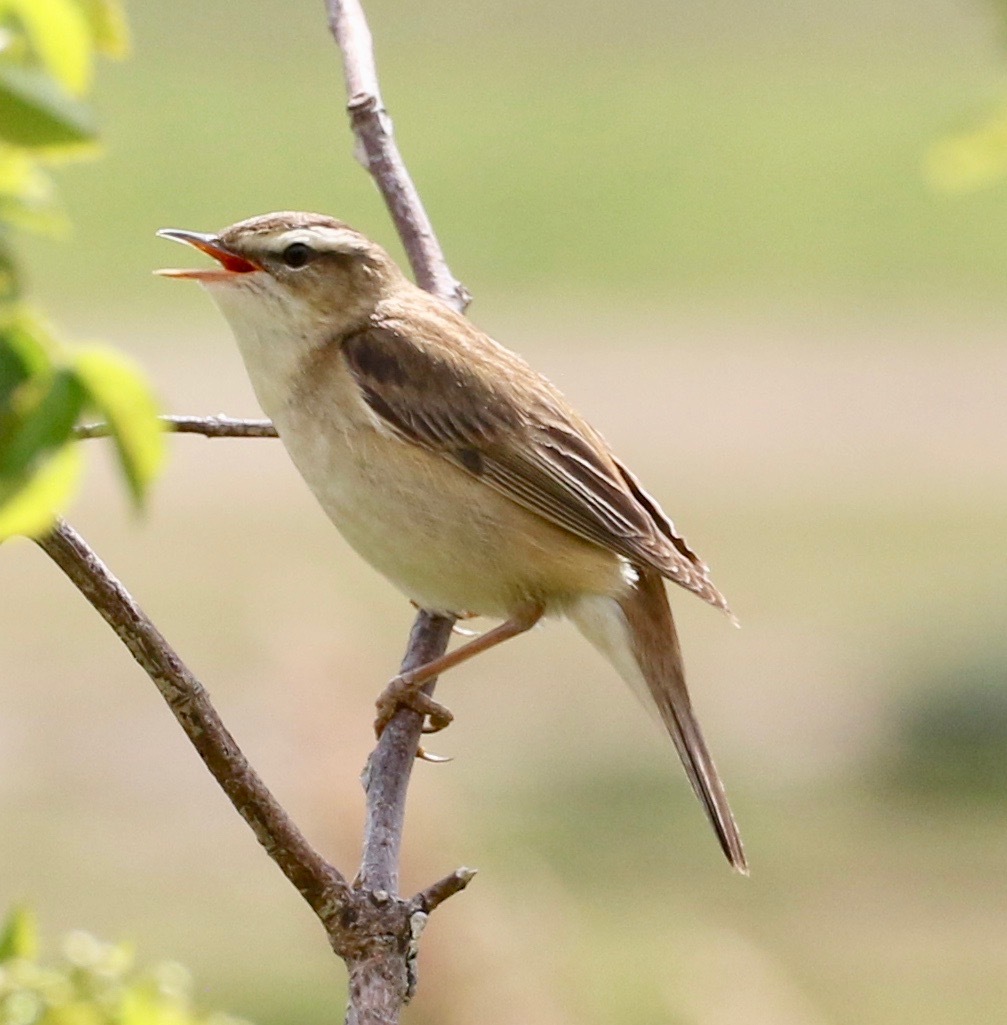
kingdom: Animalia
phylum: Chordata
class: Aves
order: Passeriformes
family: Acrocephalidae
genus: Acrocephalus
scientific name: Acrocephalus schoenobaenus
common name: Sedge warbler
